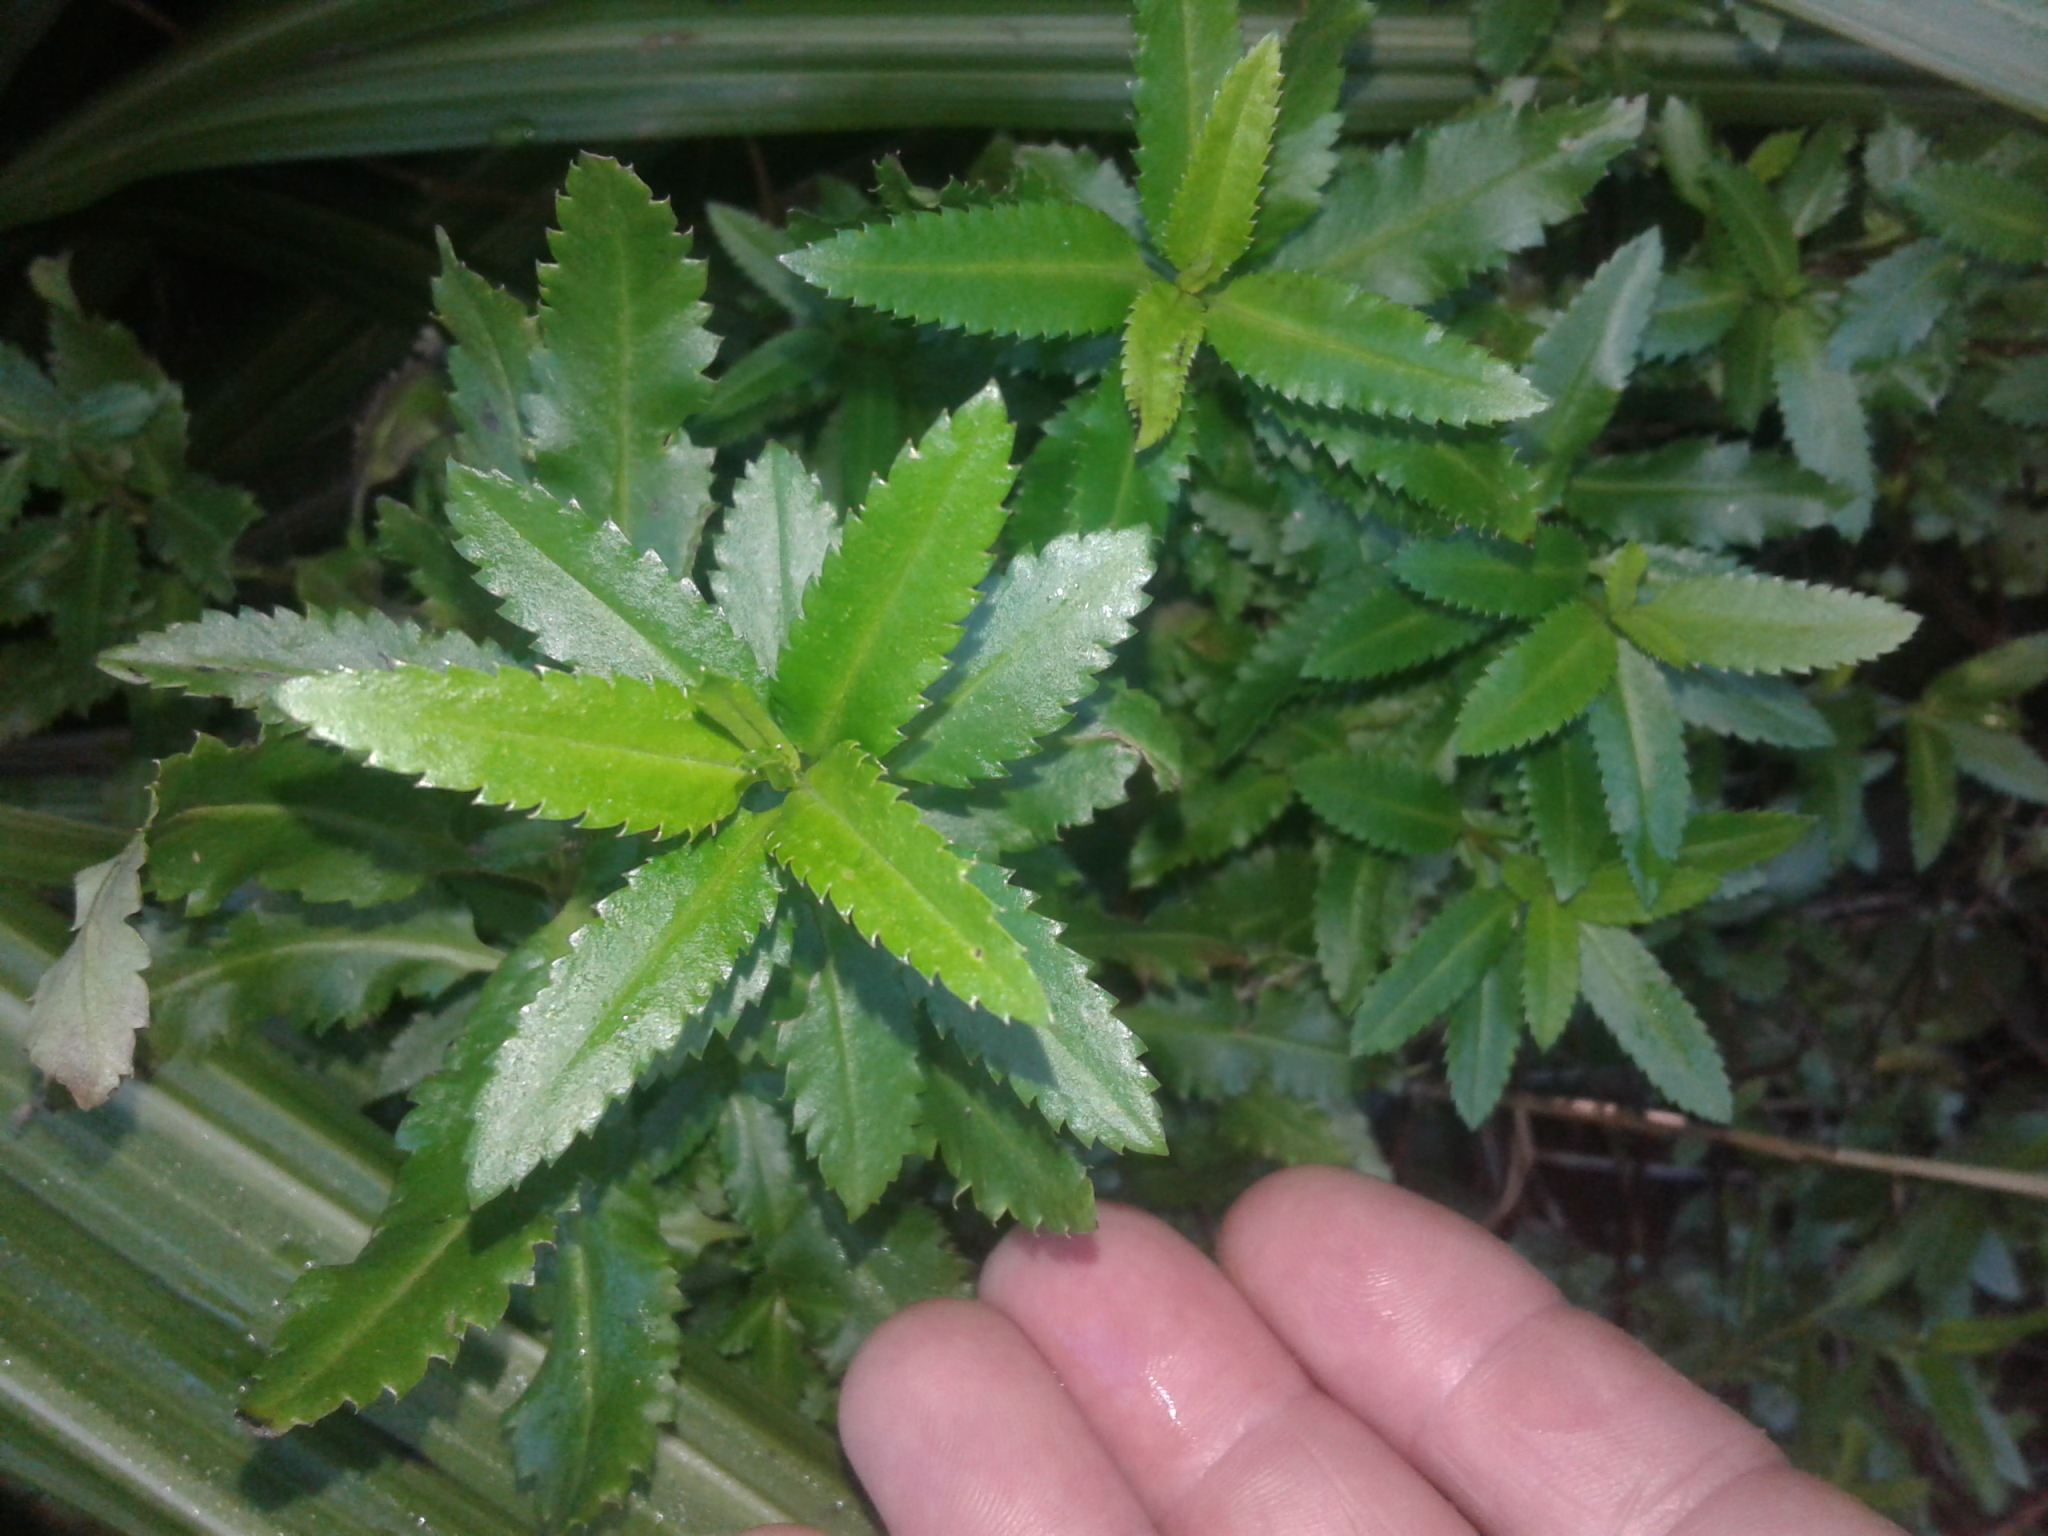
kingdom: Plantae
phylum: Tracheophyta
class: Magnoliopsida
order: Saxifragales
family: Haloragaceae
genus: Haloragis
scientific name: Haloragis erecta
